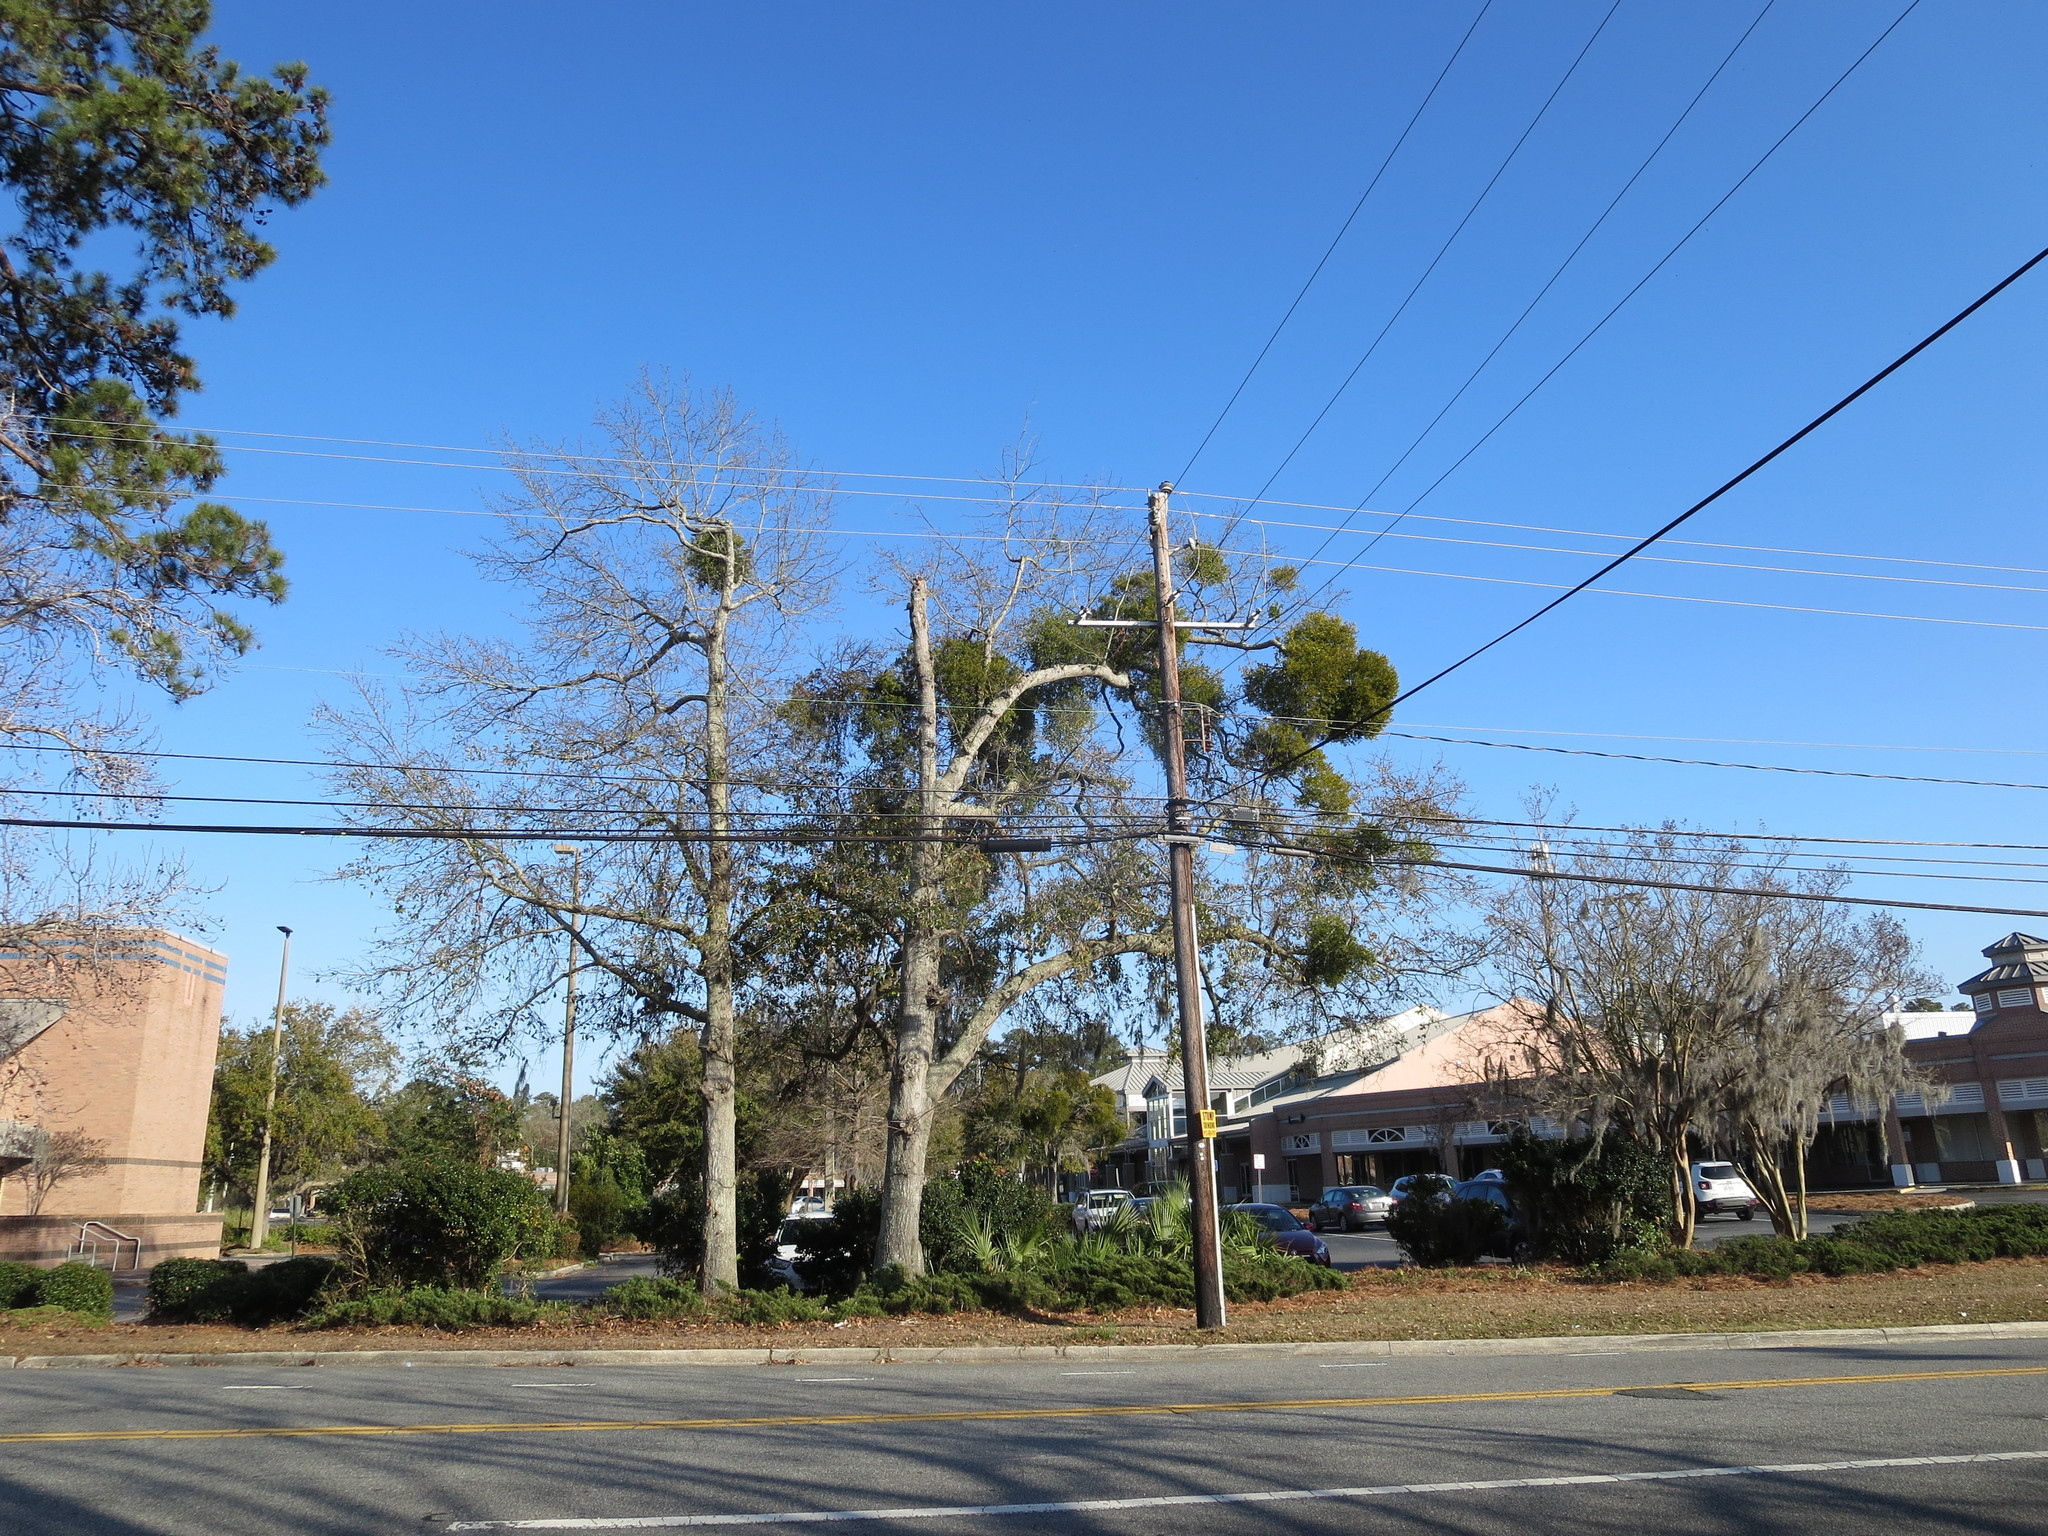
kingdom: Plantae
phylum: Tracheophyta
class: Magnoliopsida
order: Santalales
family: Viscaceae
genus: Phoradendron
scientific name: Phoradendron leucarpum
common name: Pacific mistletoe
